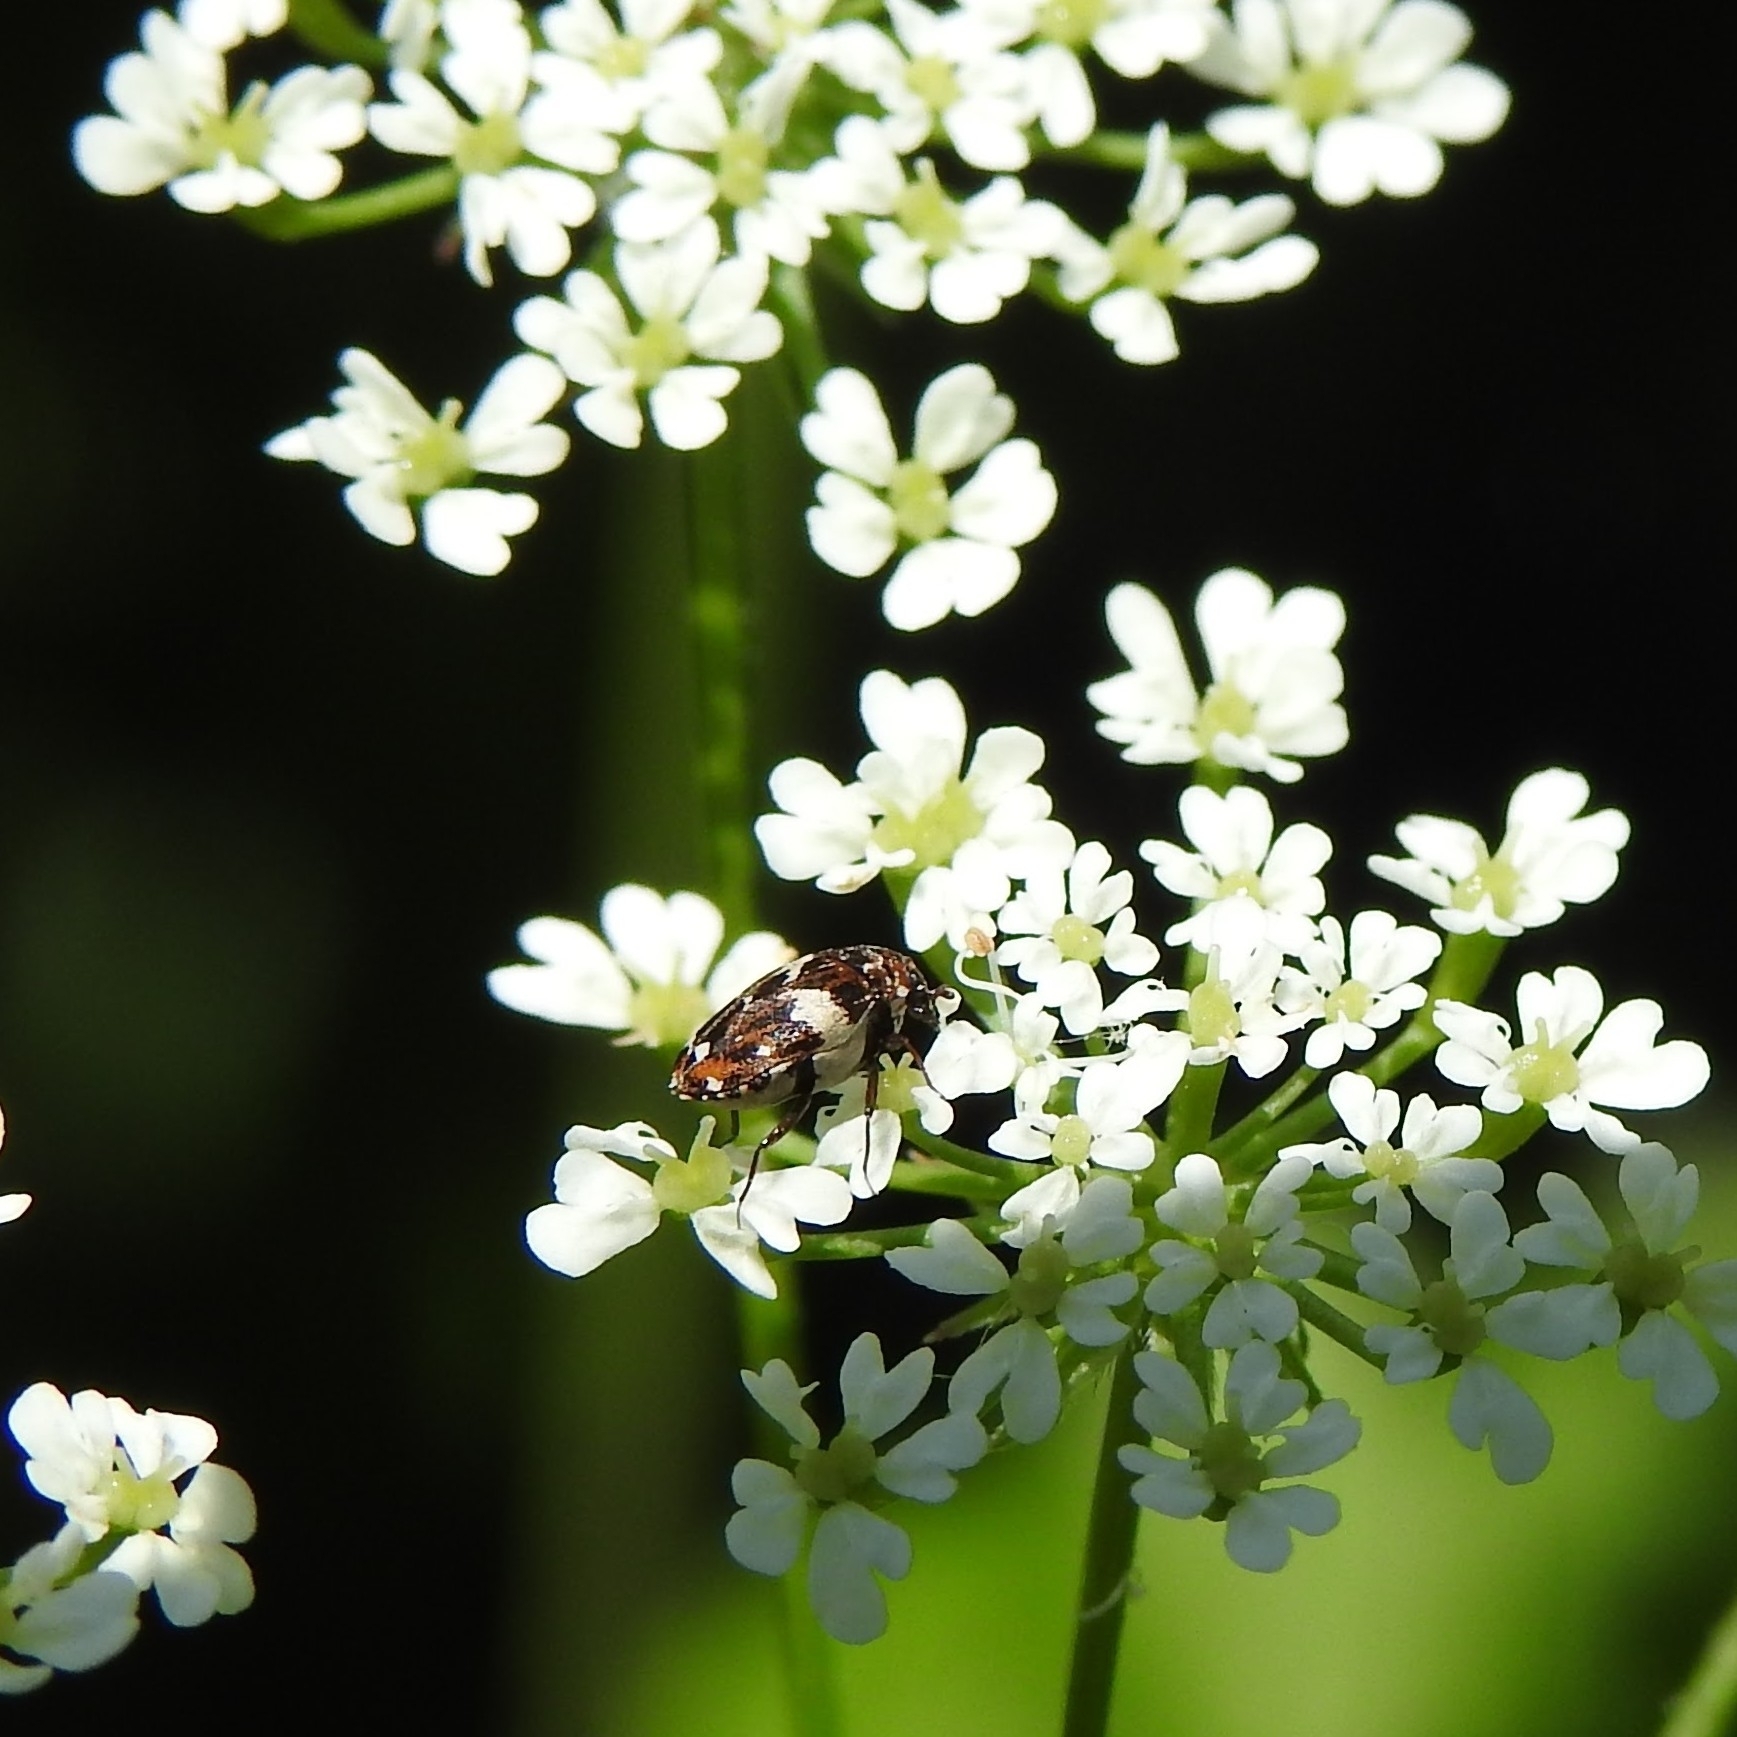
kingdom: Animalia
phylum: Arthropoda
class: Insecta
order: Coleoptera
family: Dermestidae
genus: Anthrenus
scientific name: Anthrenus angustefasciatus
